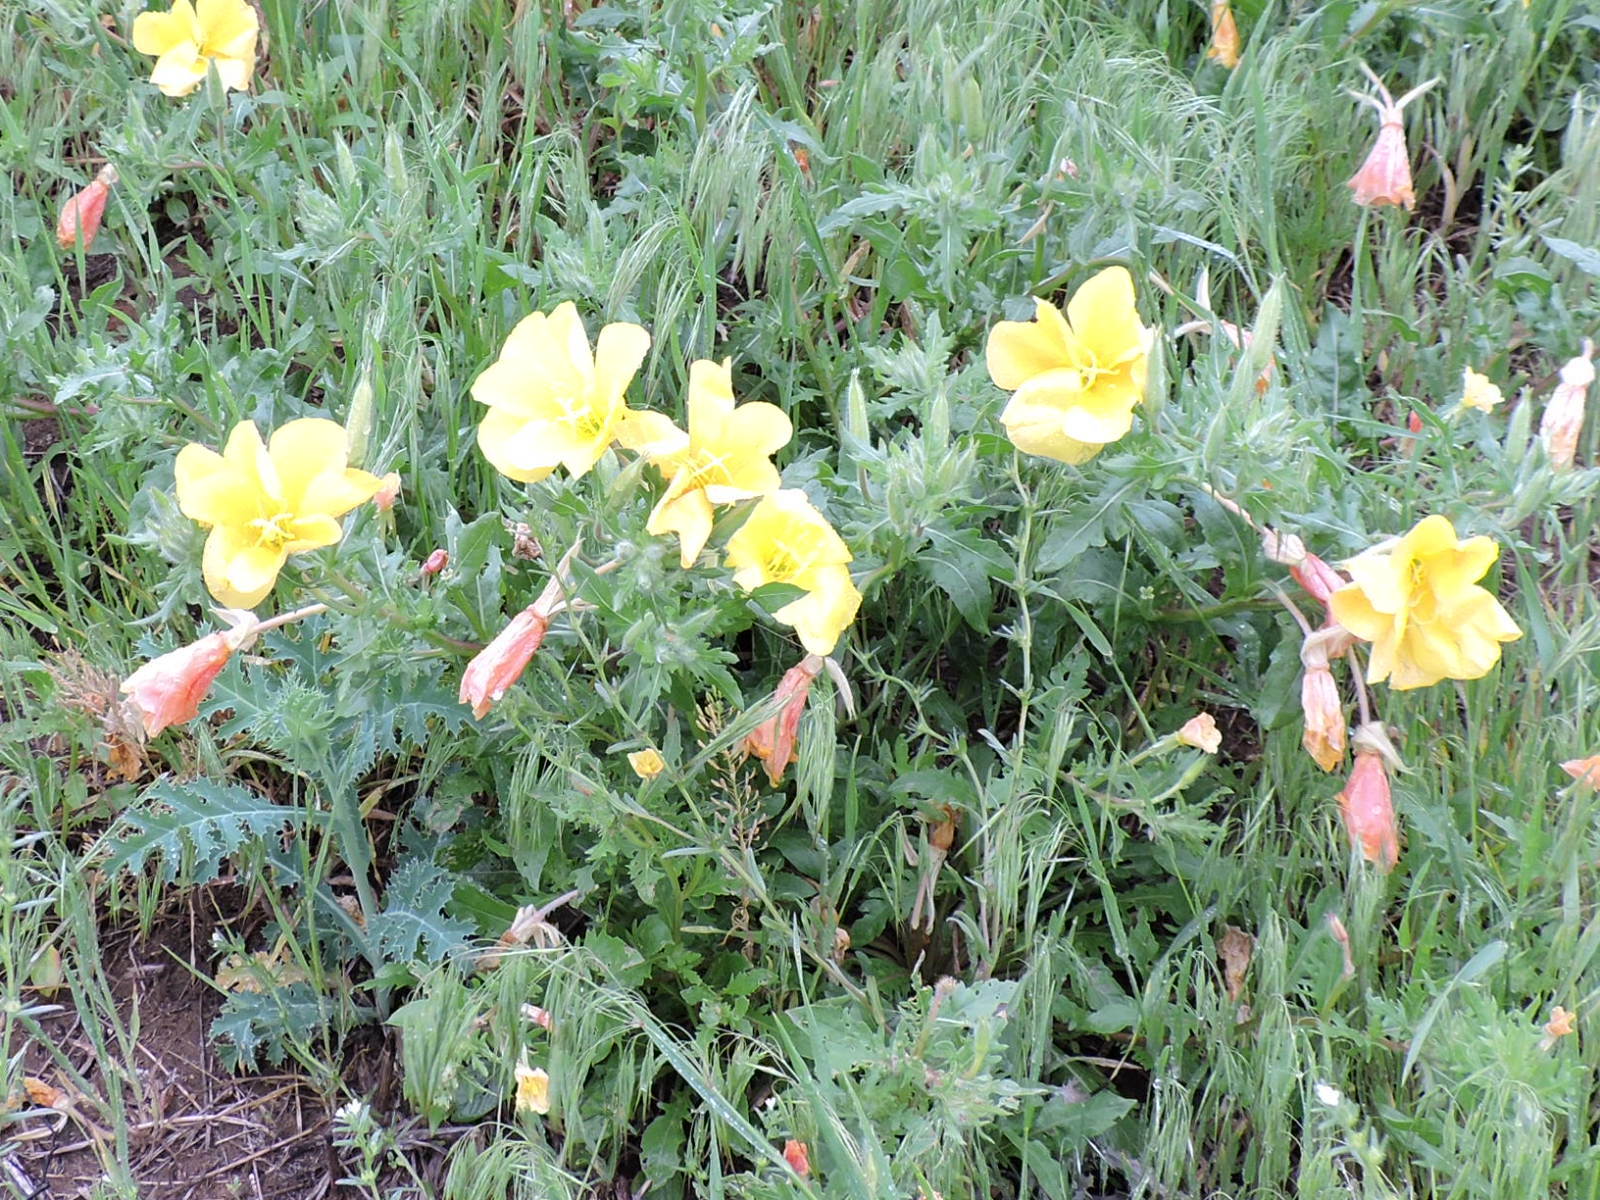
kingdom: Plantae
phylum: Tracheophyta
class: Magnoliopsida
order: Myrtales
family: Onagraceae
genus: Oenothera
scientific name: Oenothera grandis
